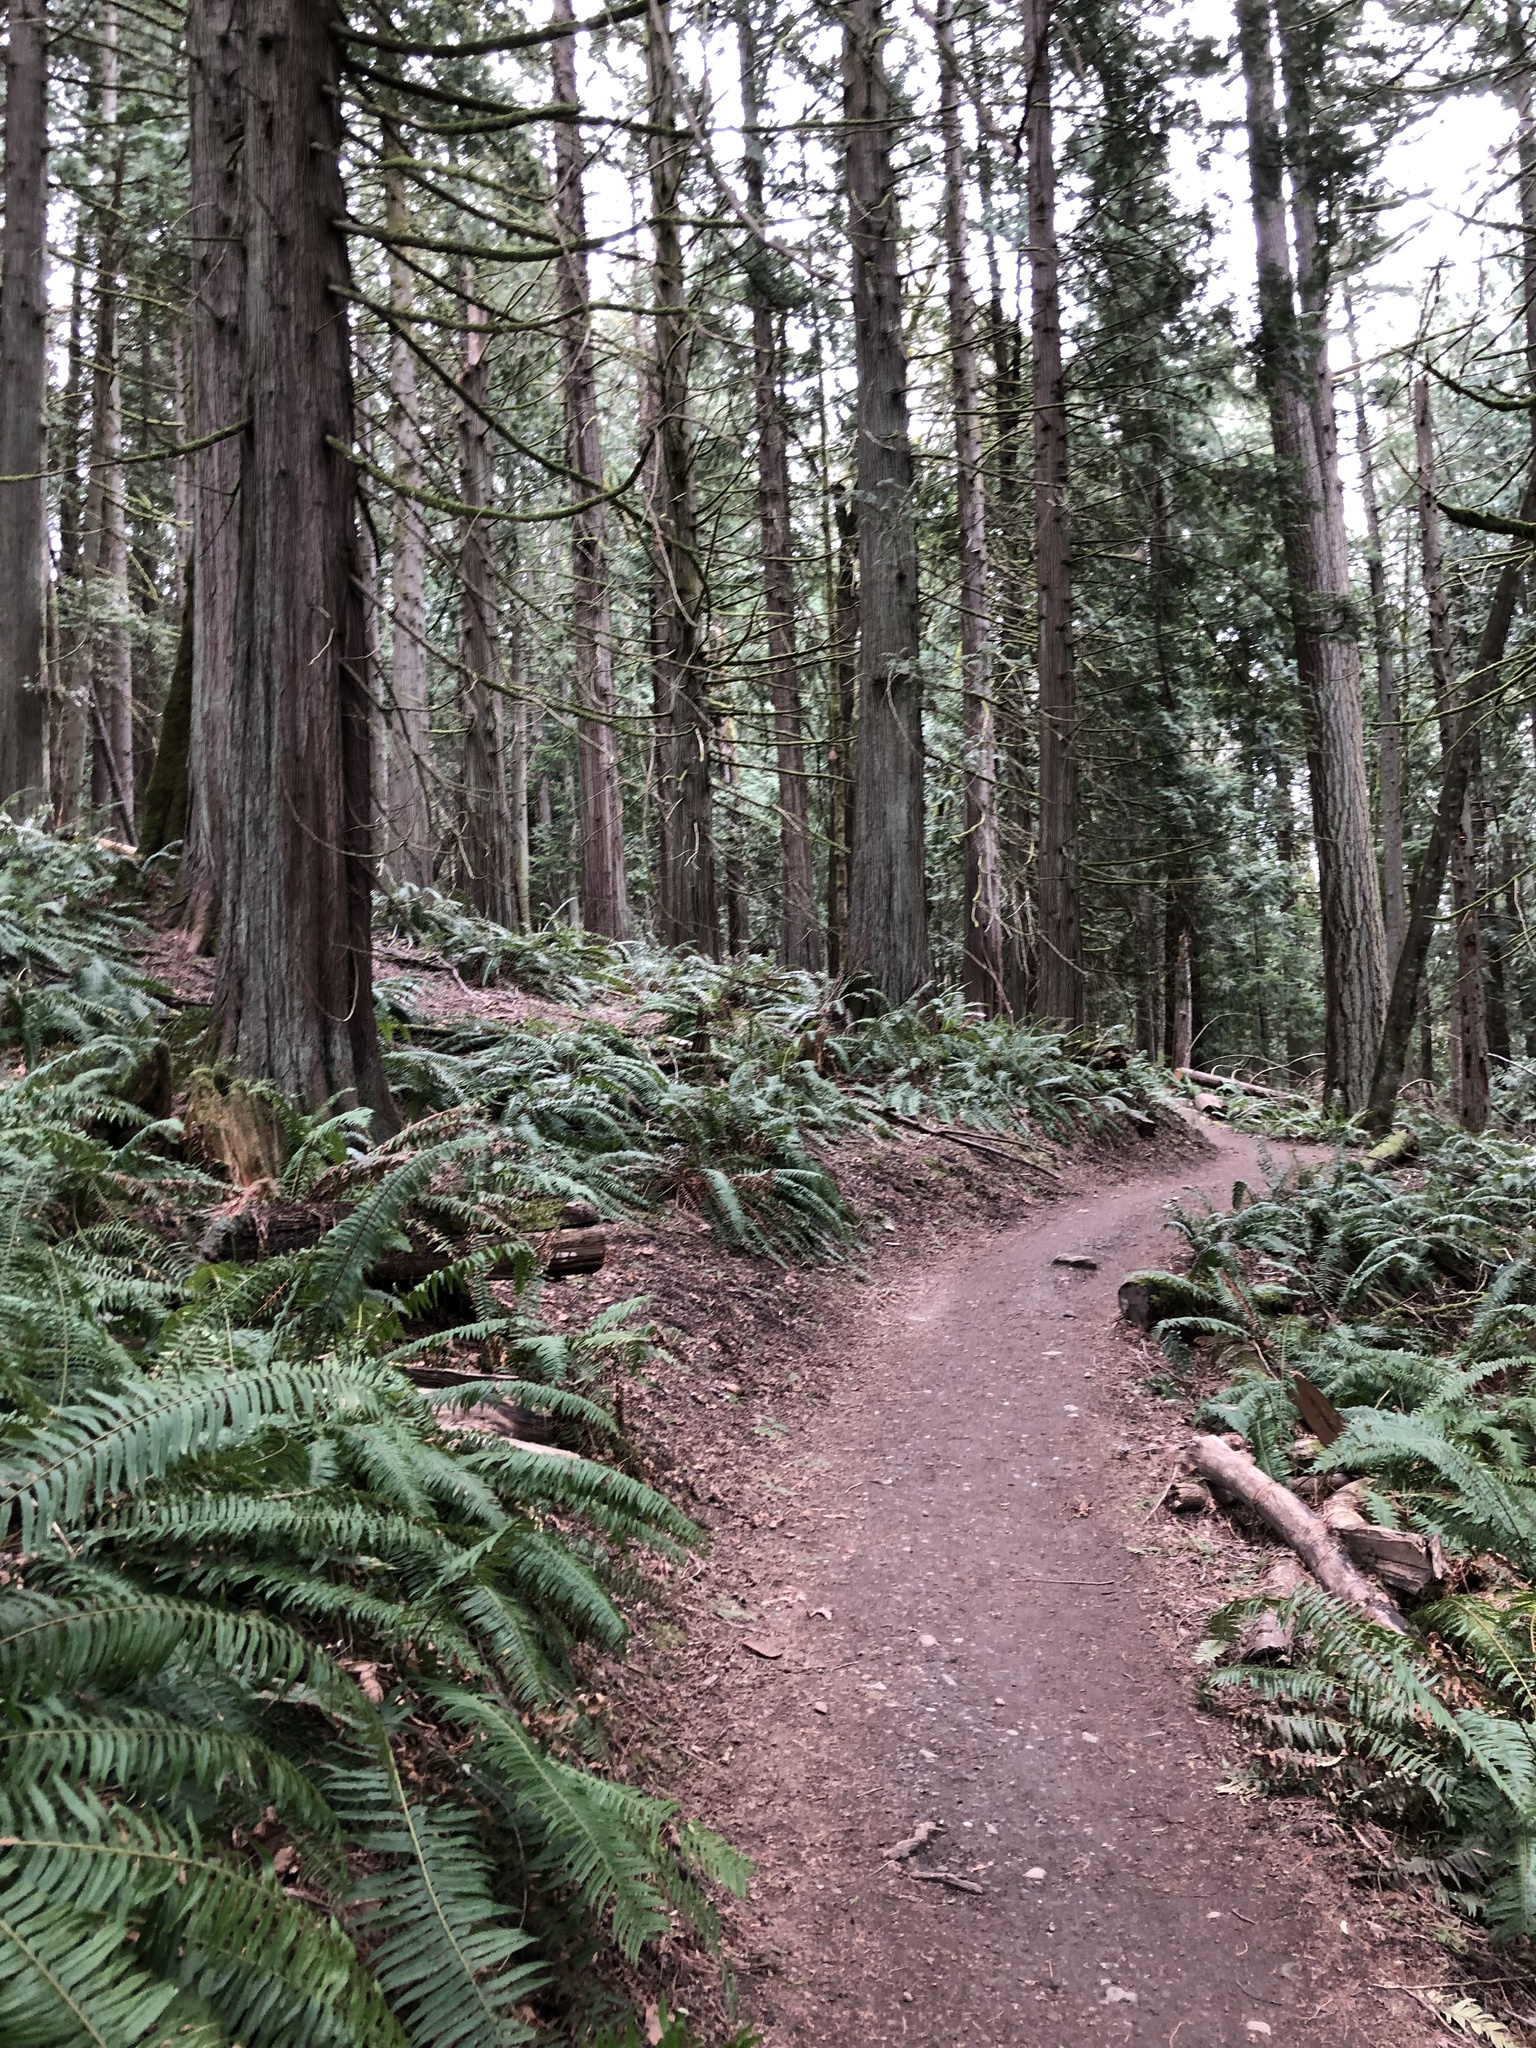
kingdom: Plantae
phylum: Tracheophyta
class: Pinopsida
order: Pinales
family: Cupressaceae
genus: Thuja
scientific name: Thuja plicata
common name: Western red-cedar
